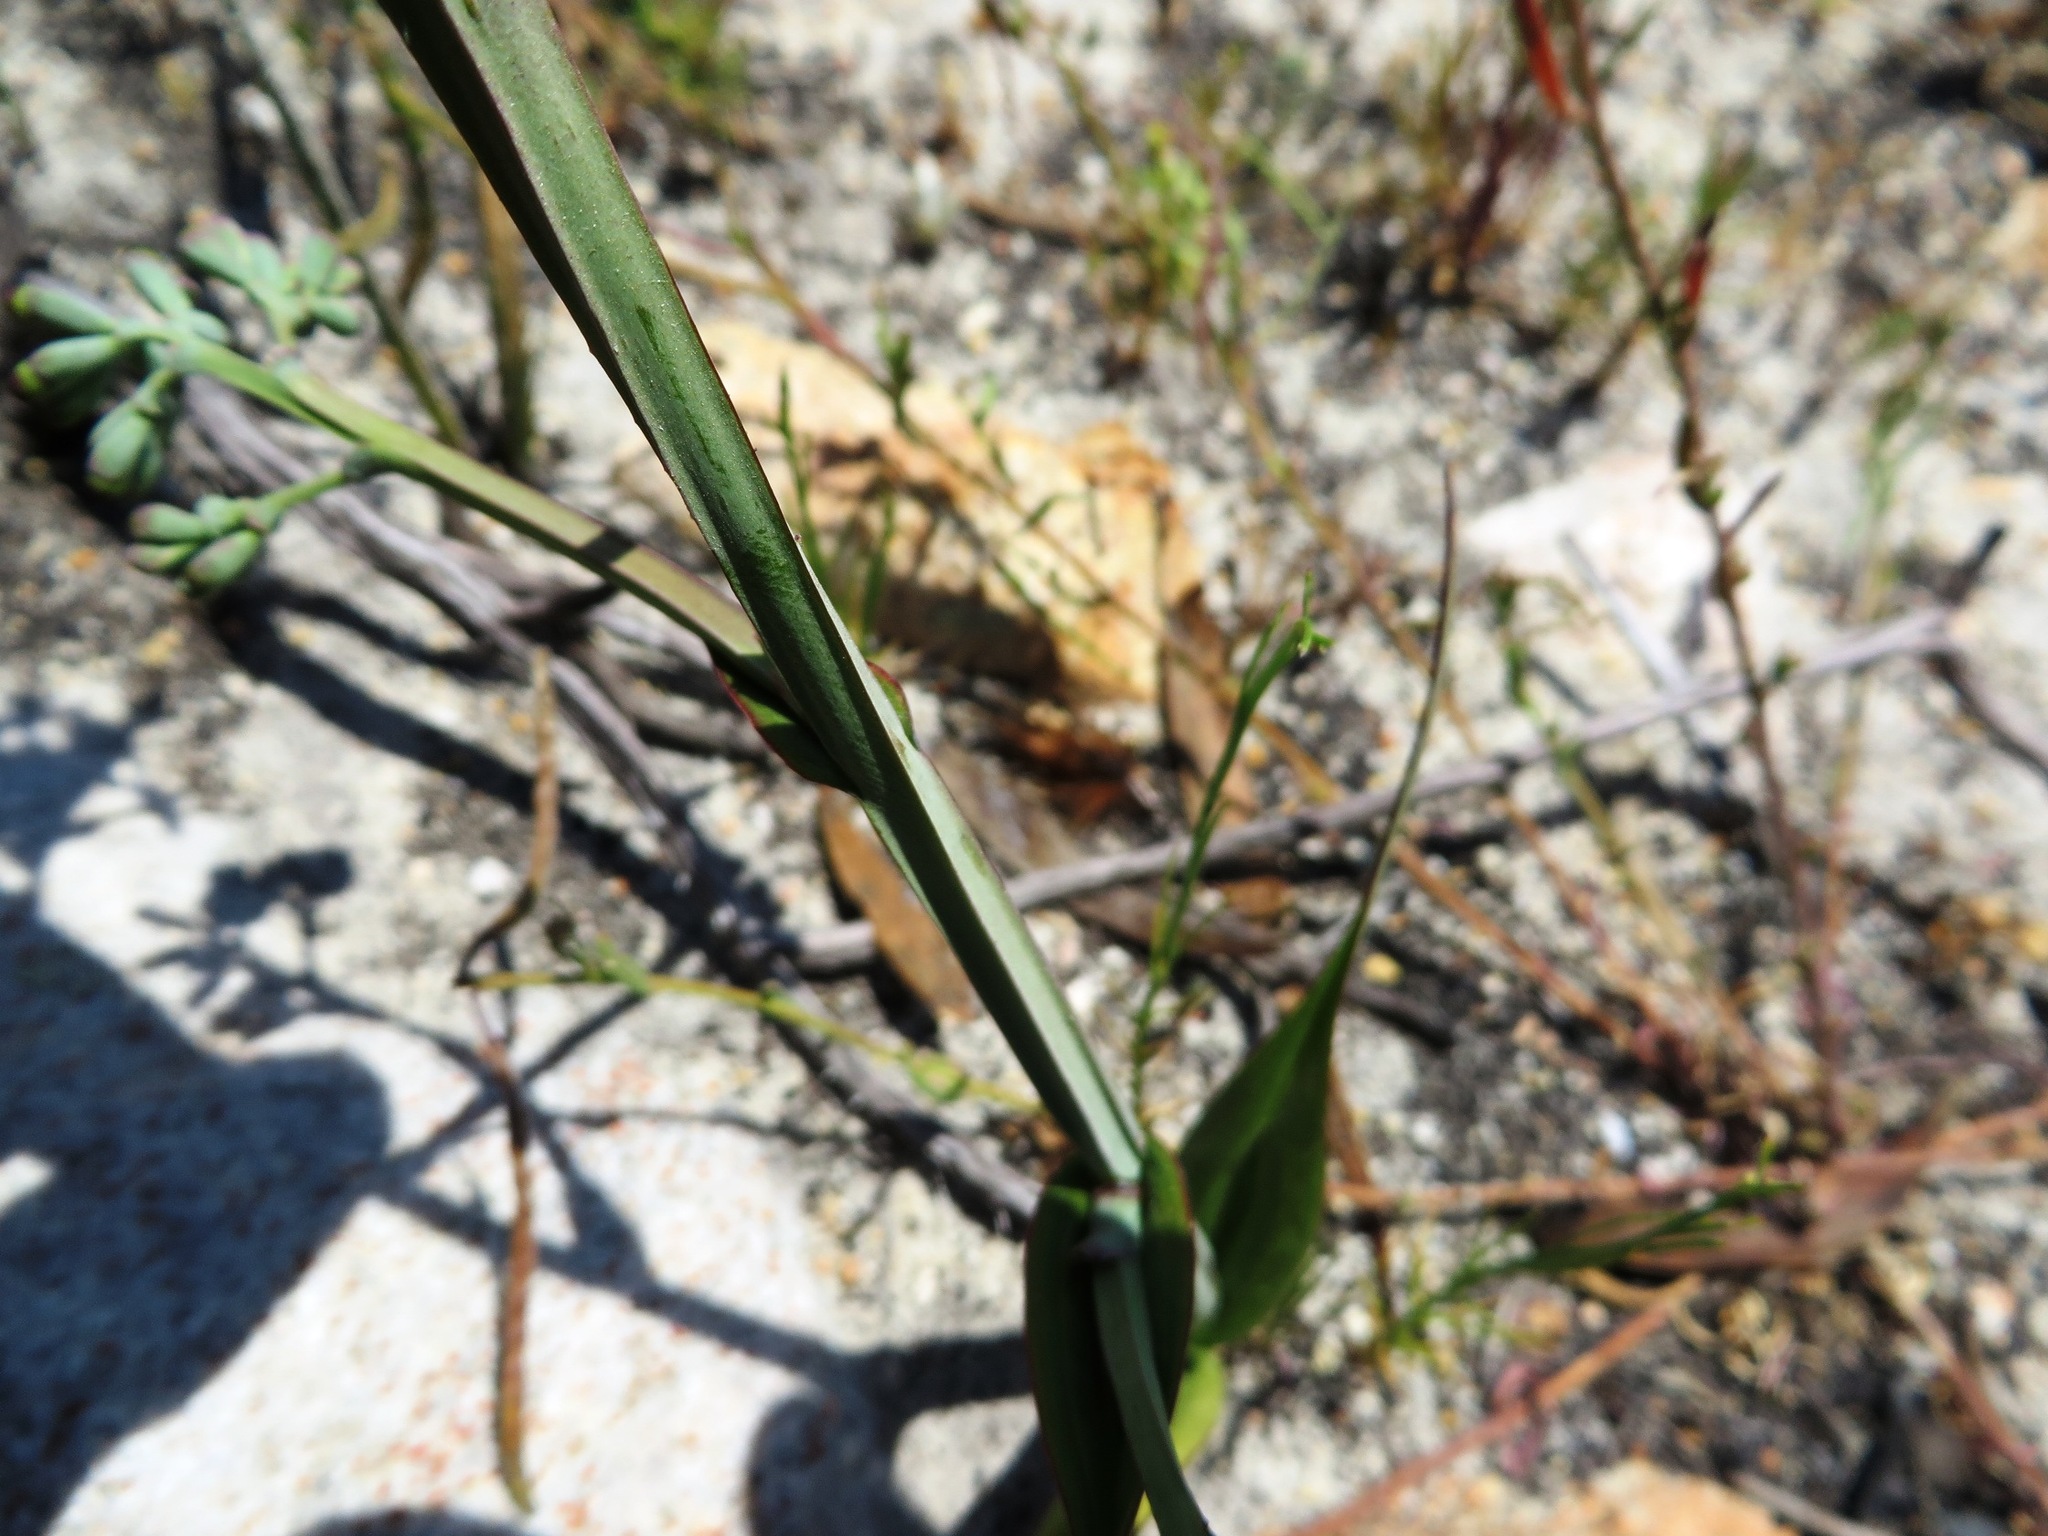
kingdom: Plantae
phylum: Tracheophyta
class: Liliopsida
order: Asparagales
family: Iridaceae
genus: Codonorhiza
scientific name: Codonorhiza micrantha
